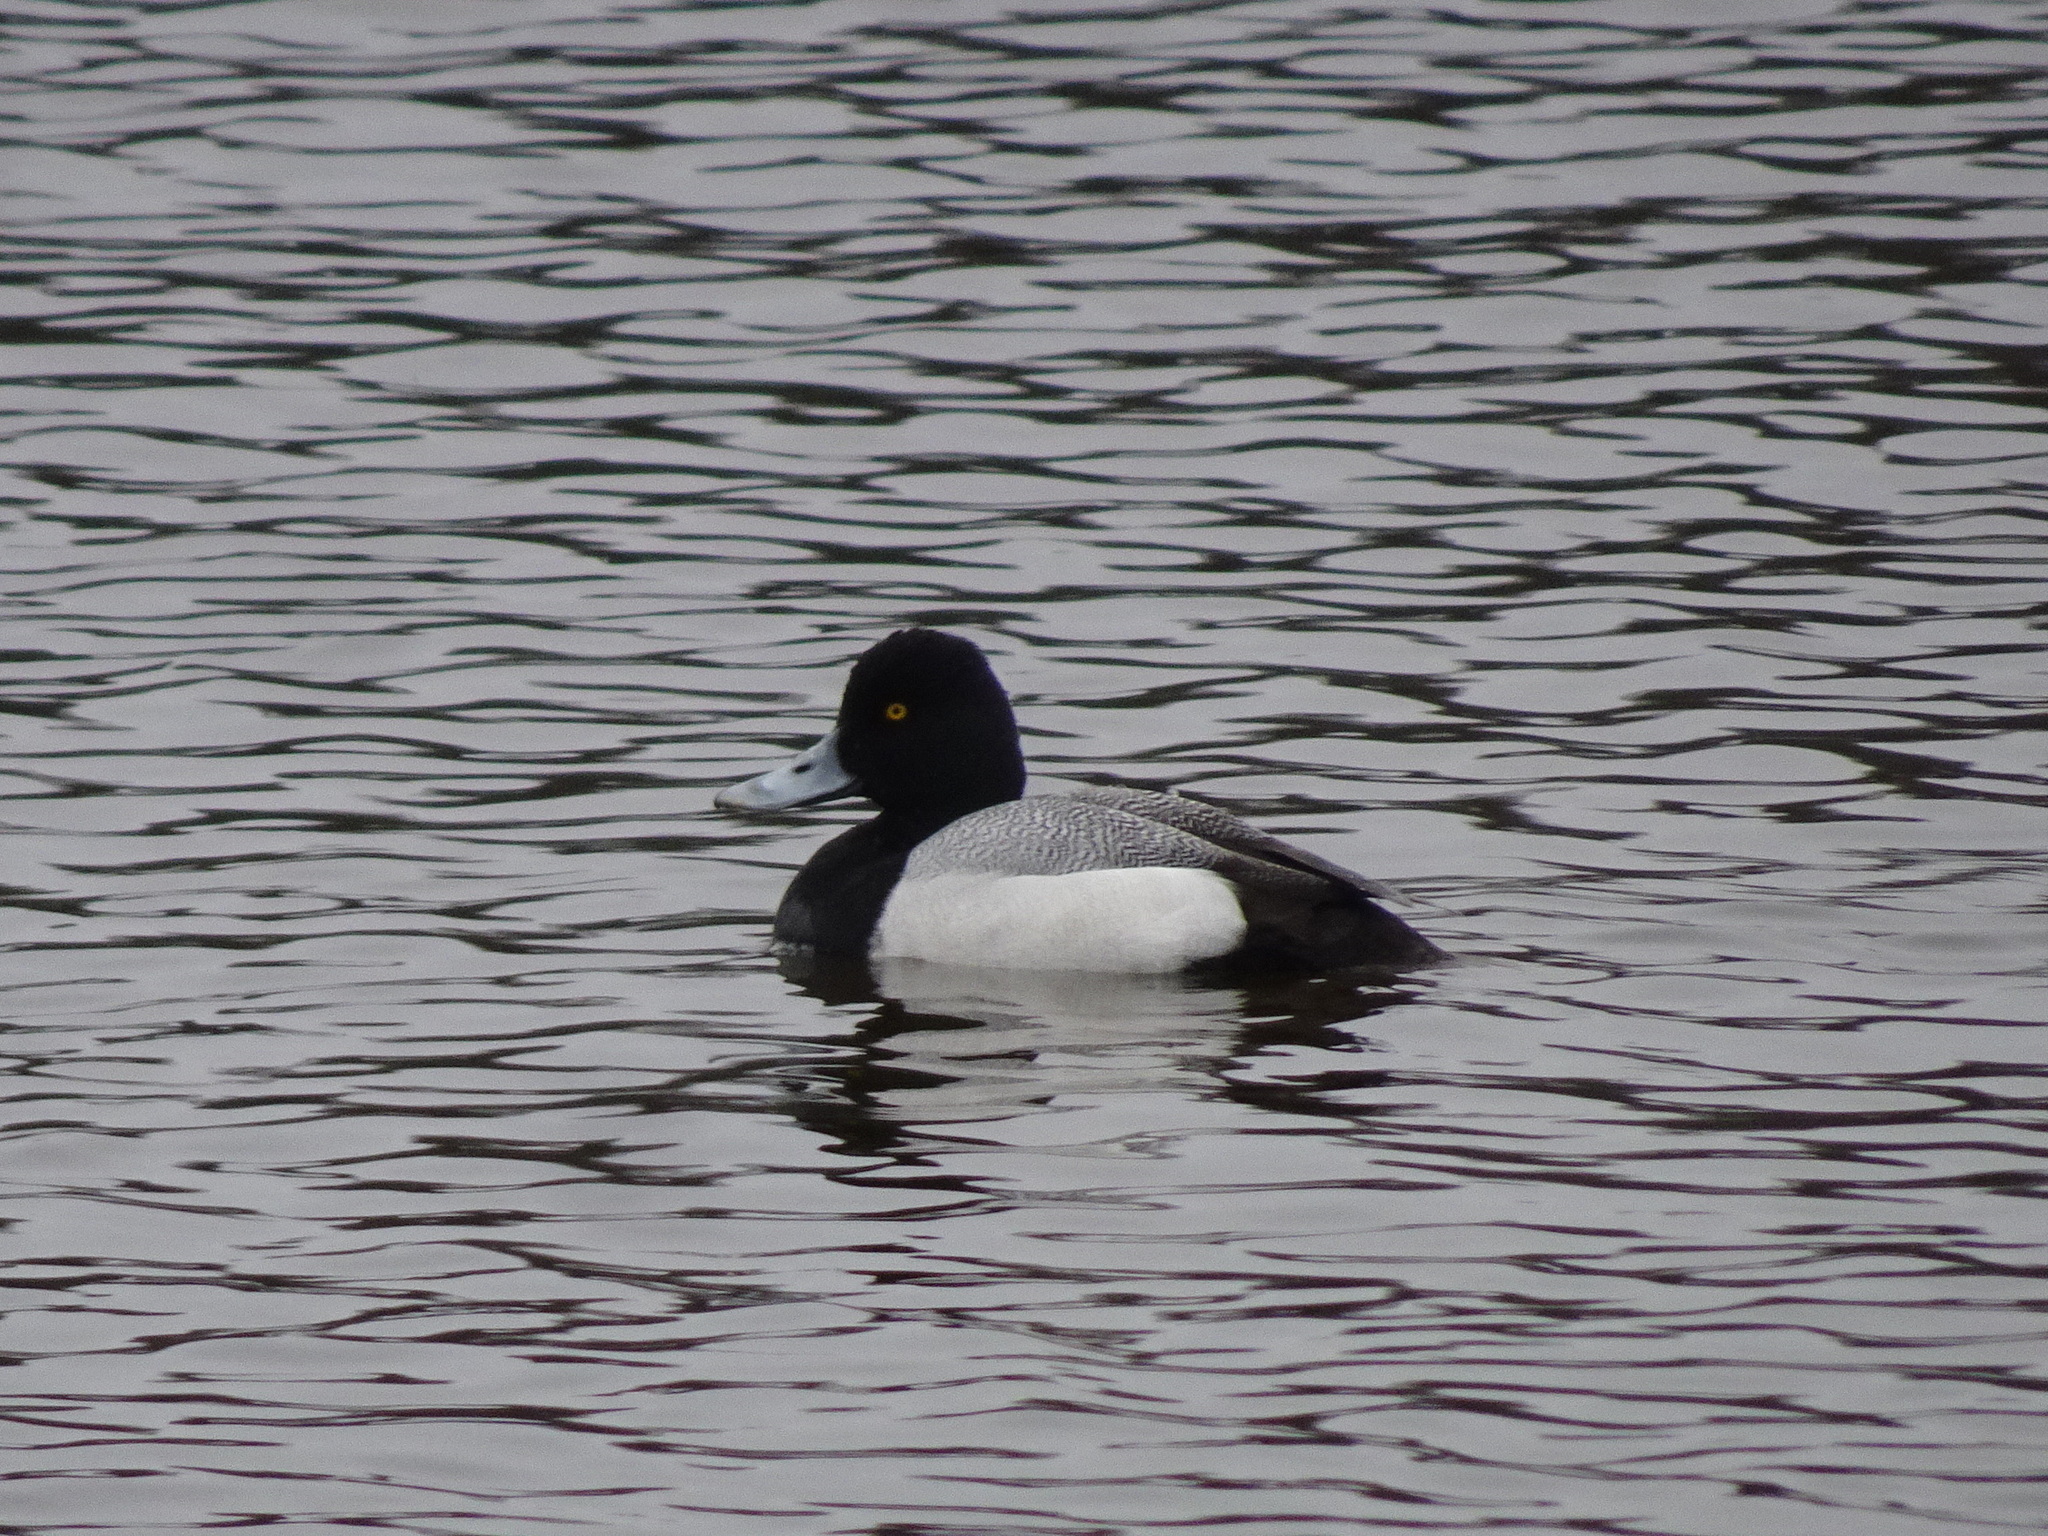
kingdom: Animalia
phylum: Chordata
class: Aves
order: Anseriformes
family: Anatidae
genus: Aythya
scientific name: Aythya affinis
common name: Lesser scaup
